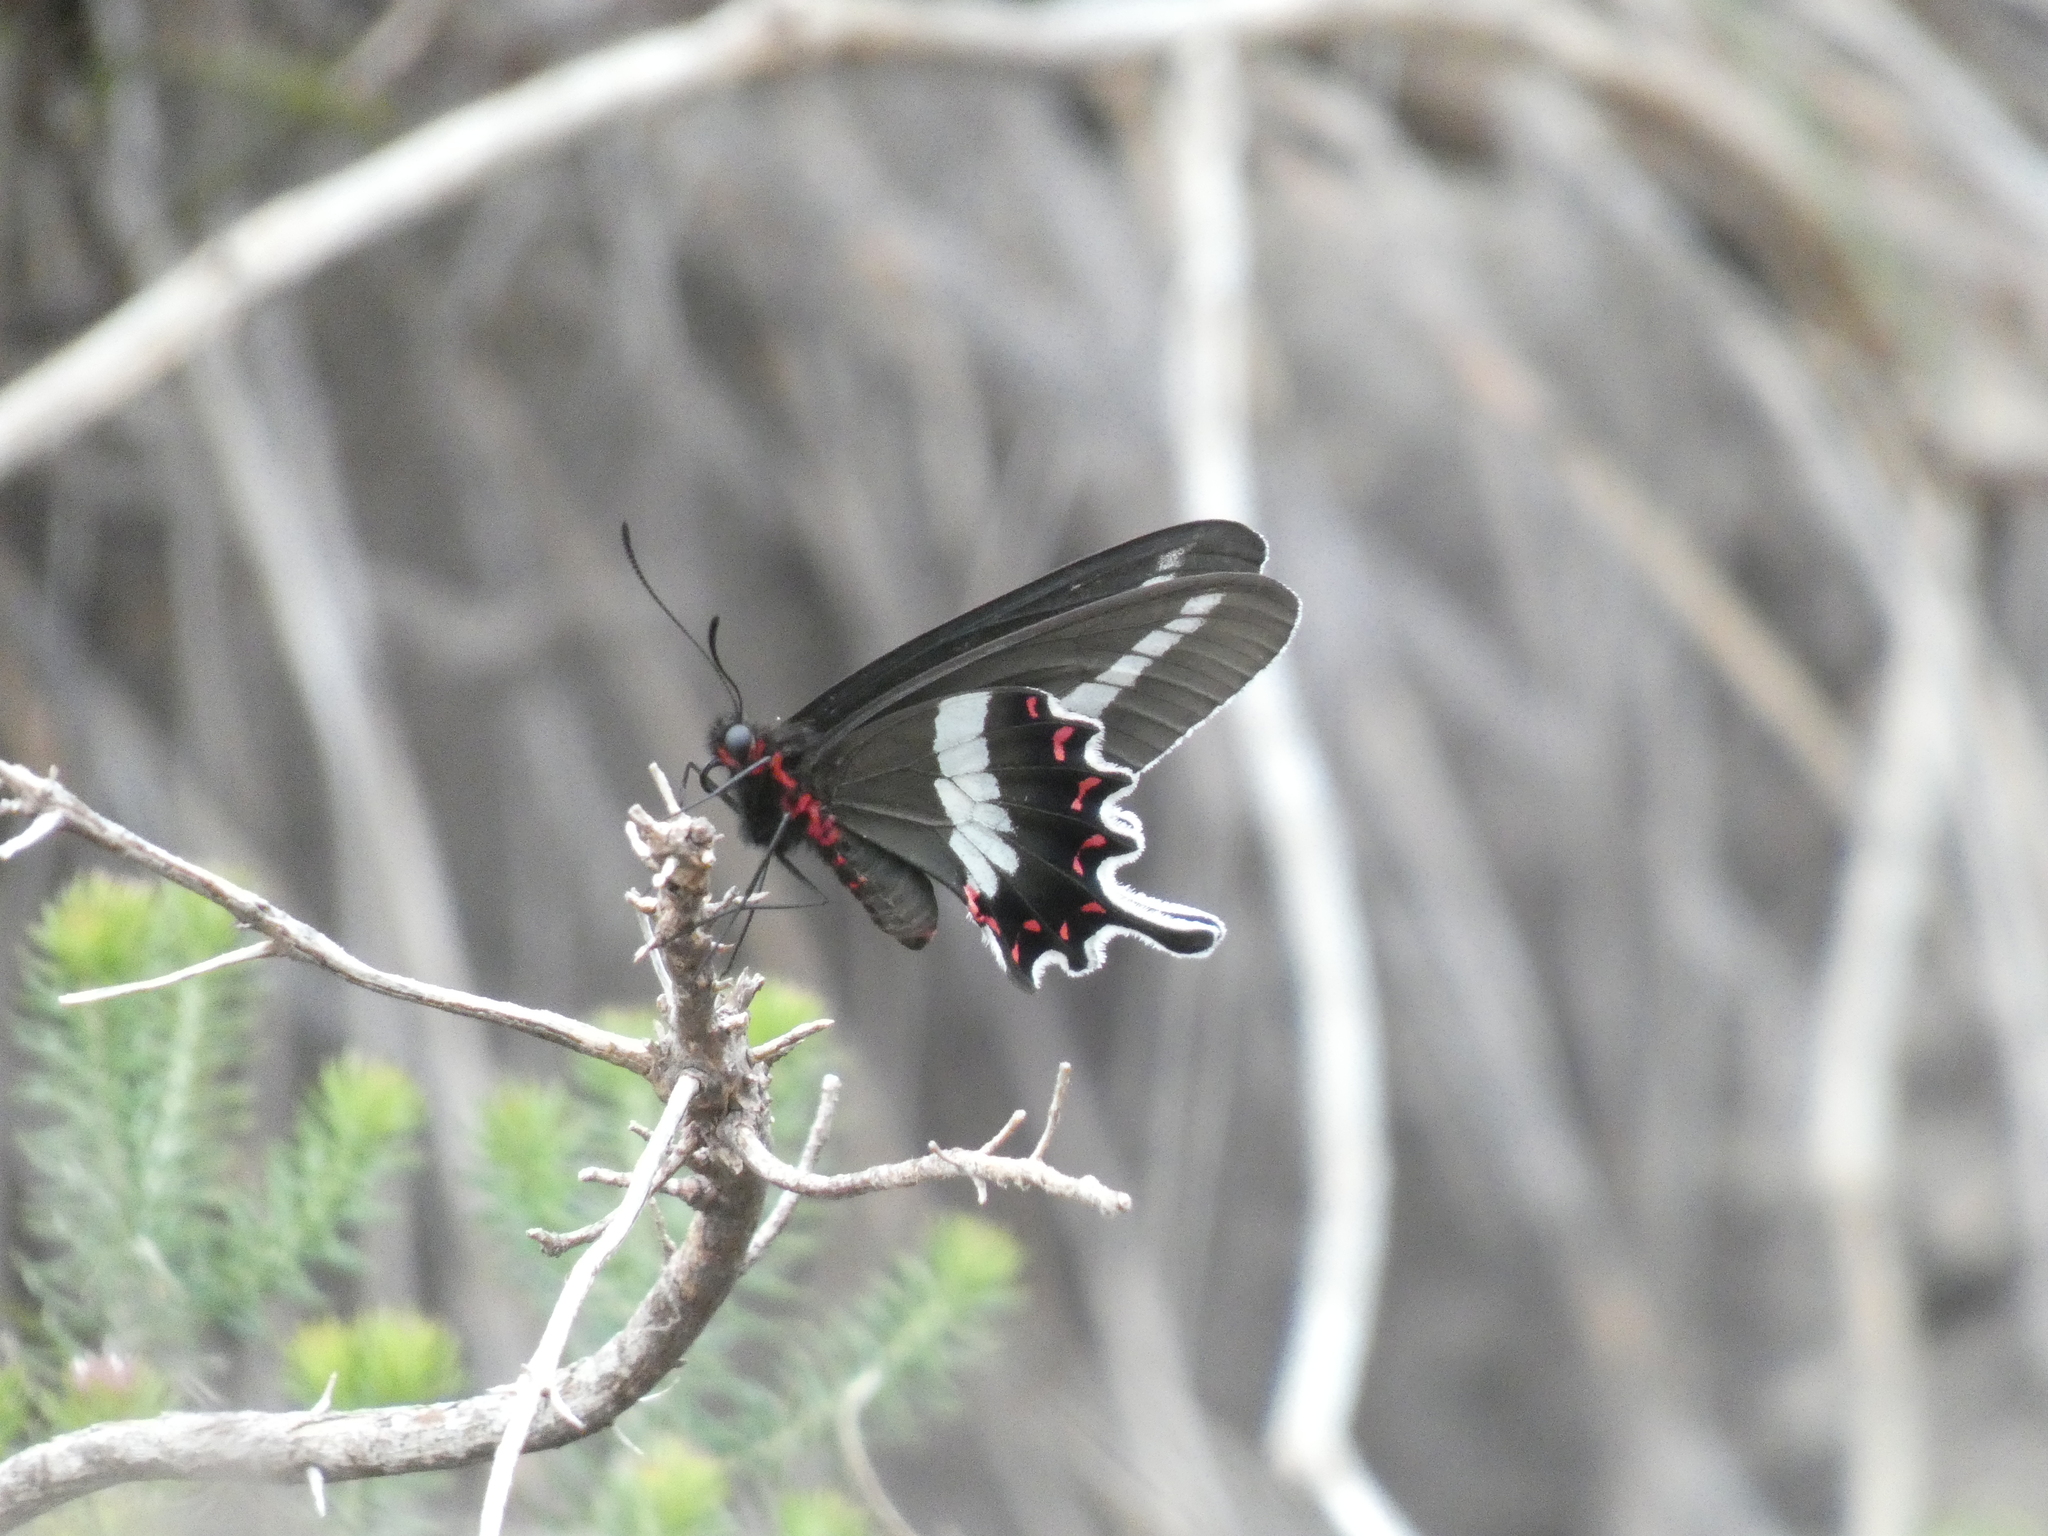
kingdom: Animalia
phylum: Arthropoda
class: Insecta
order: Lepidoptera
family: Papilionidae
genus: Parides
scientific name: Parides bunichus
